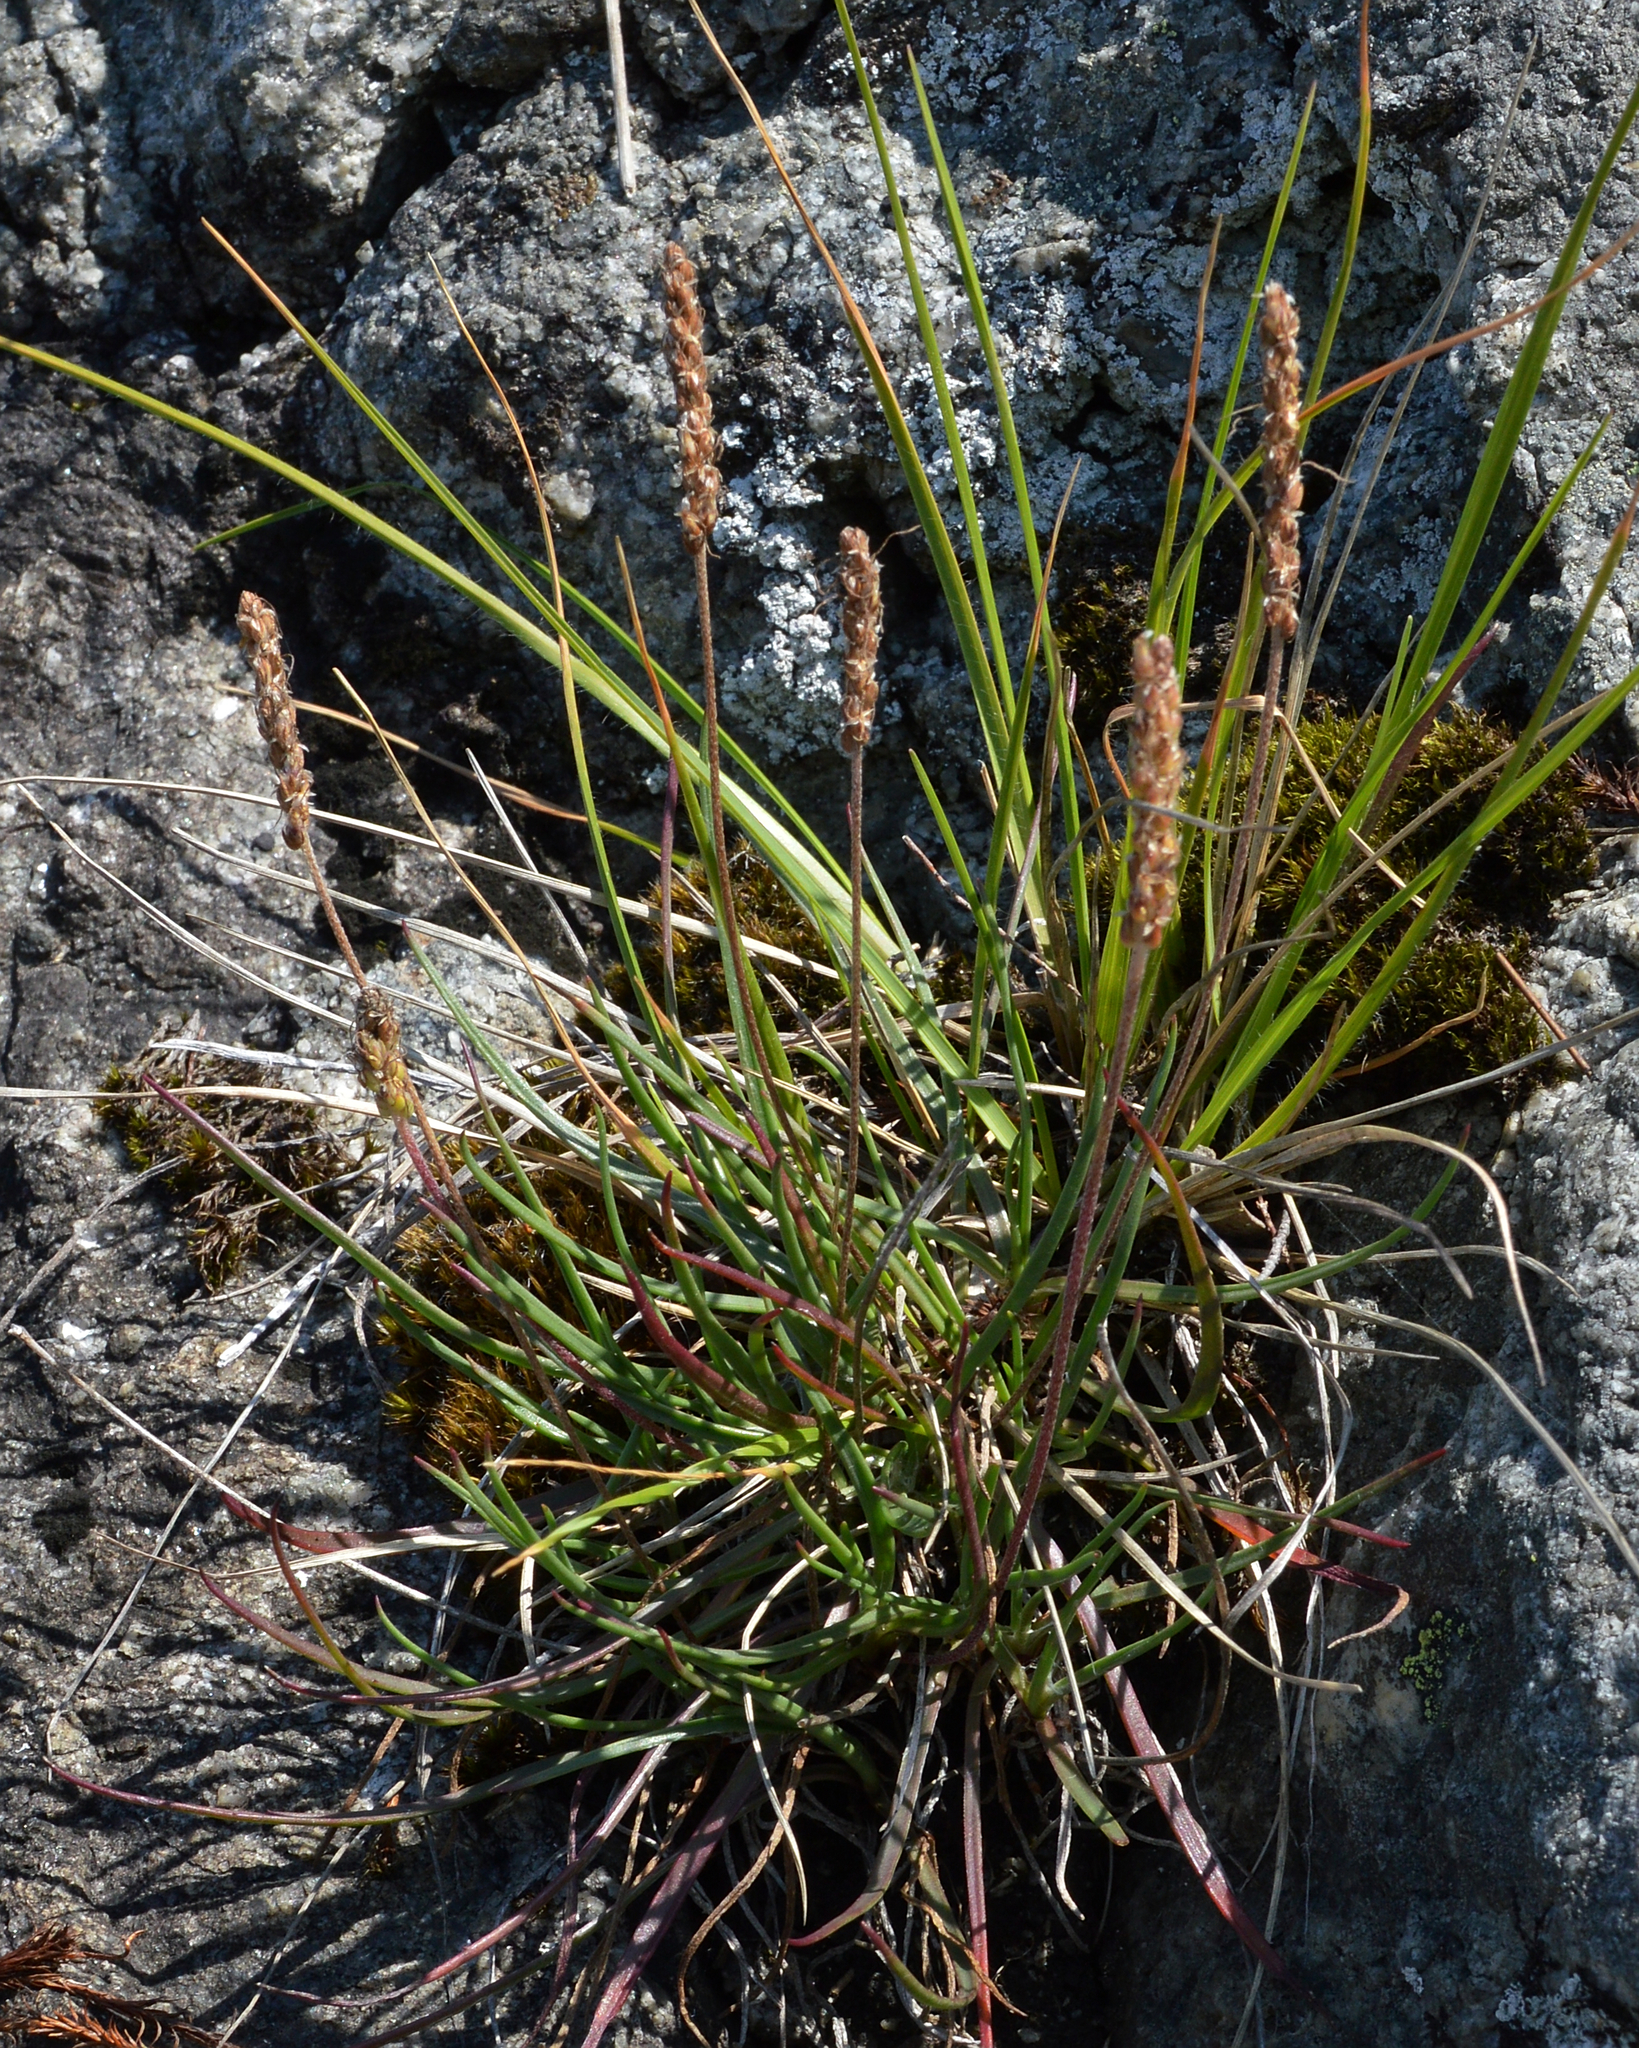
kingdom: Plantae
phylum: Tracheophyta
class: Magnoliopsida
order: Lamiales
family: Plantaginaceae
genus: Plantago
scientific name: Plantago maritima
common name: Sea plantain
